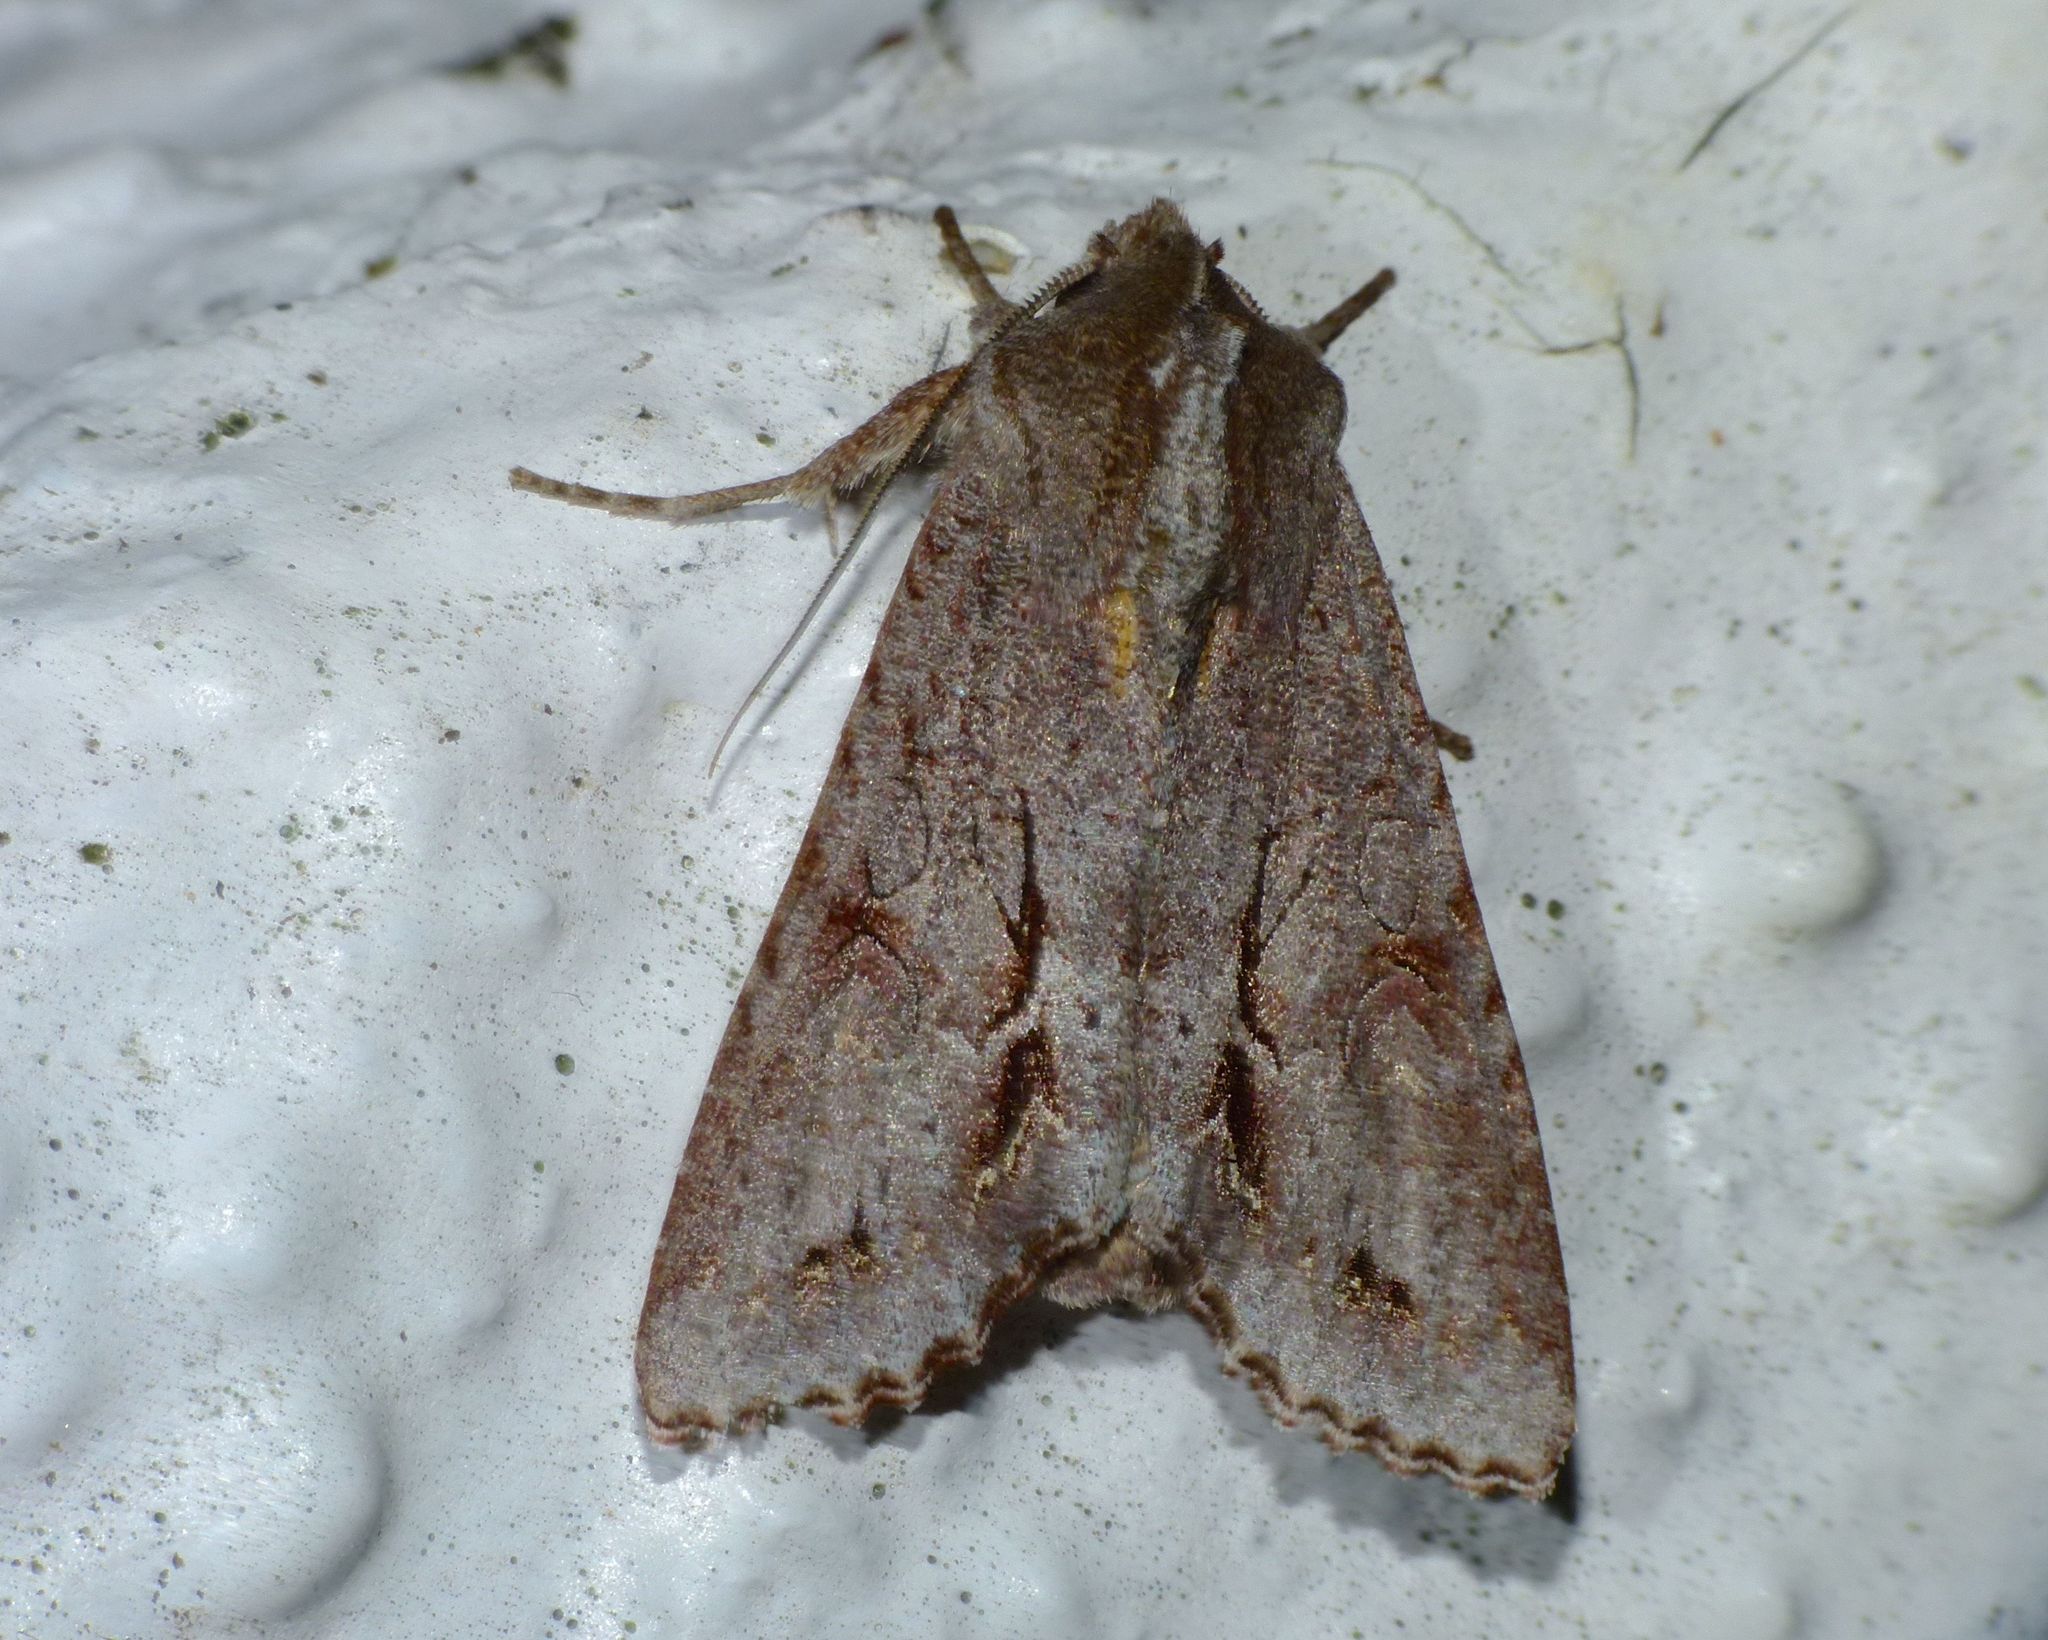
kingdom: Animalia
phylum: Arthropoda
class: Insecta
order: Lepidoptera
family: Noctuidae
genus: Ichneutica
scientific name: Ichneutica
